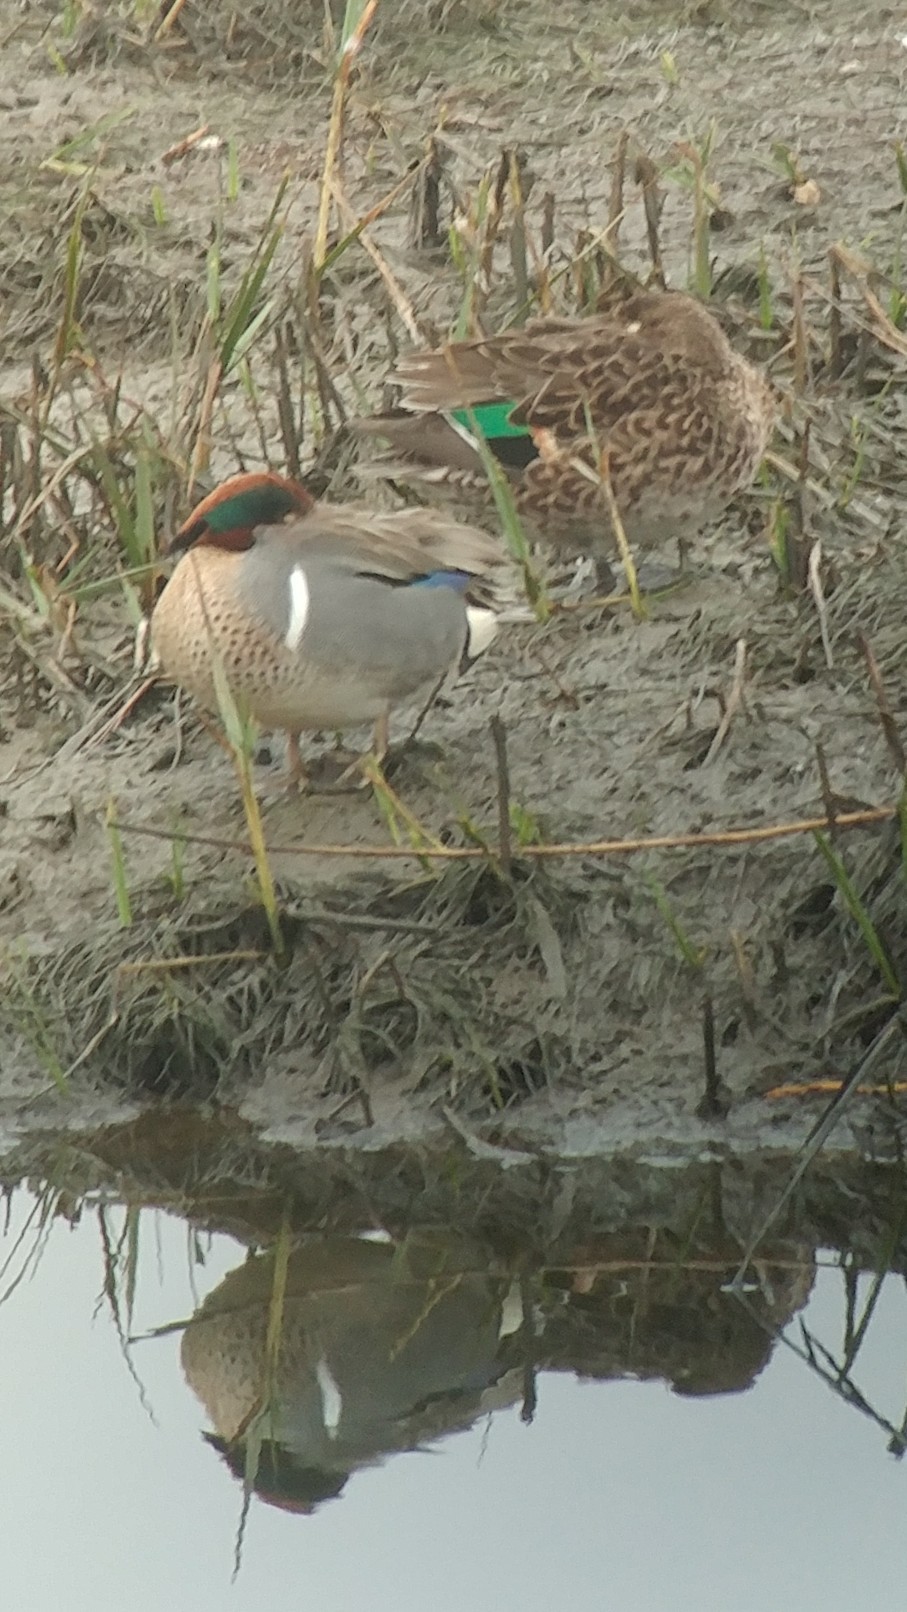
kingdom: Animalia
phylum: Chordata
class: Aves
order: Anseriformes
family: Anatidae
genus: Anas
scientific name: Anas crecca
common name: Eurasian teal
